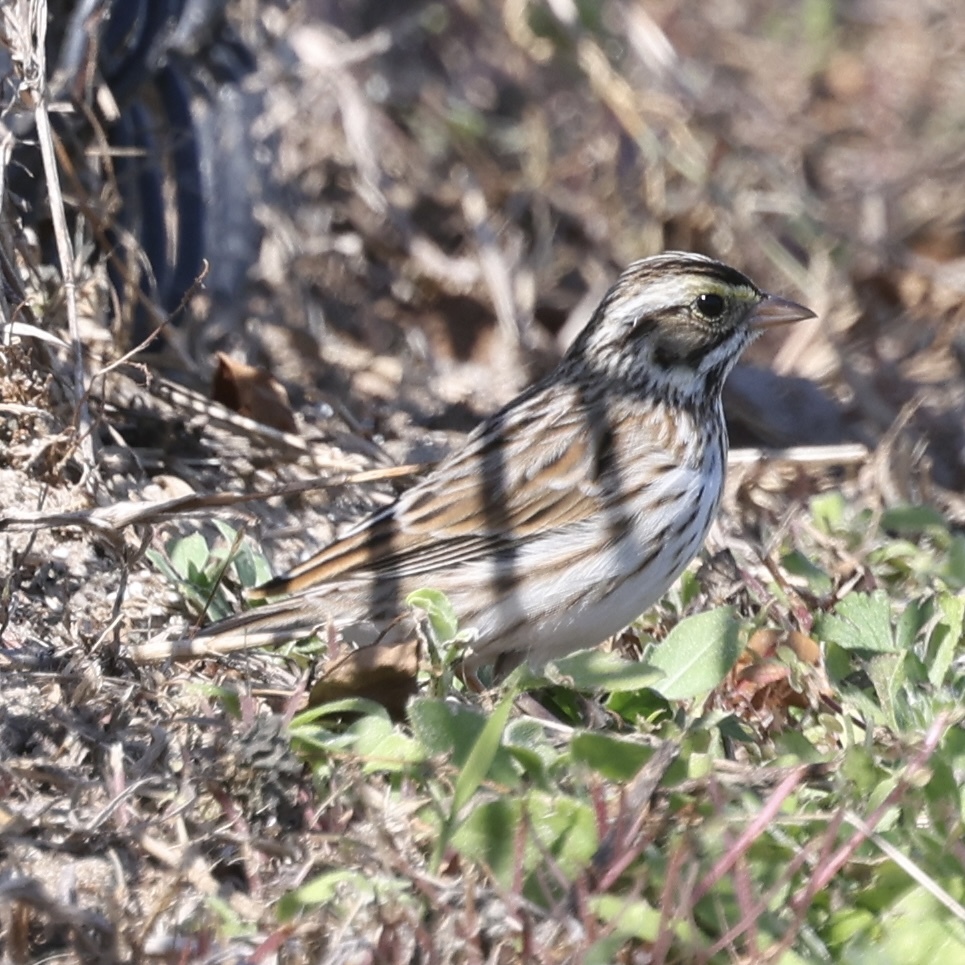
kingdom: Animalia
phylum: Chordata
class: Aves
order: Passeriformes
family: Passerellidae
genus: Passerculus
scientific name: Passerculus sandwichensis
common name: Savannah sparrow
